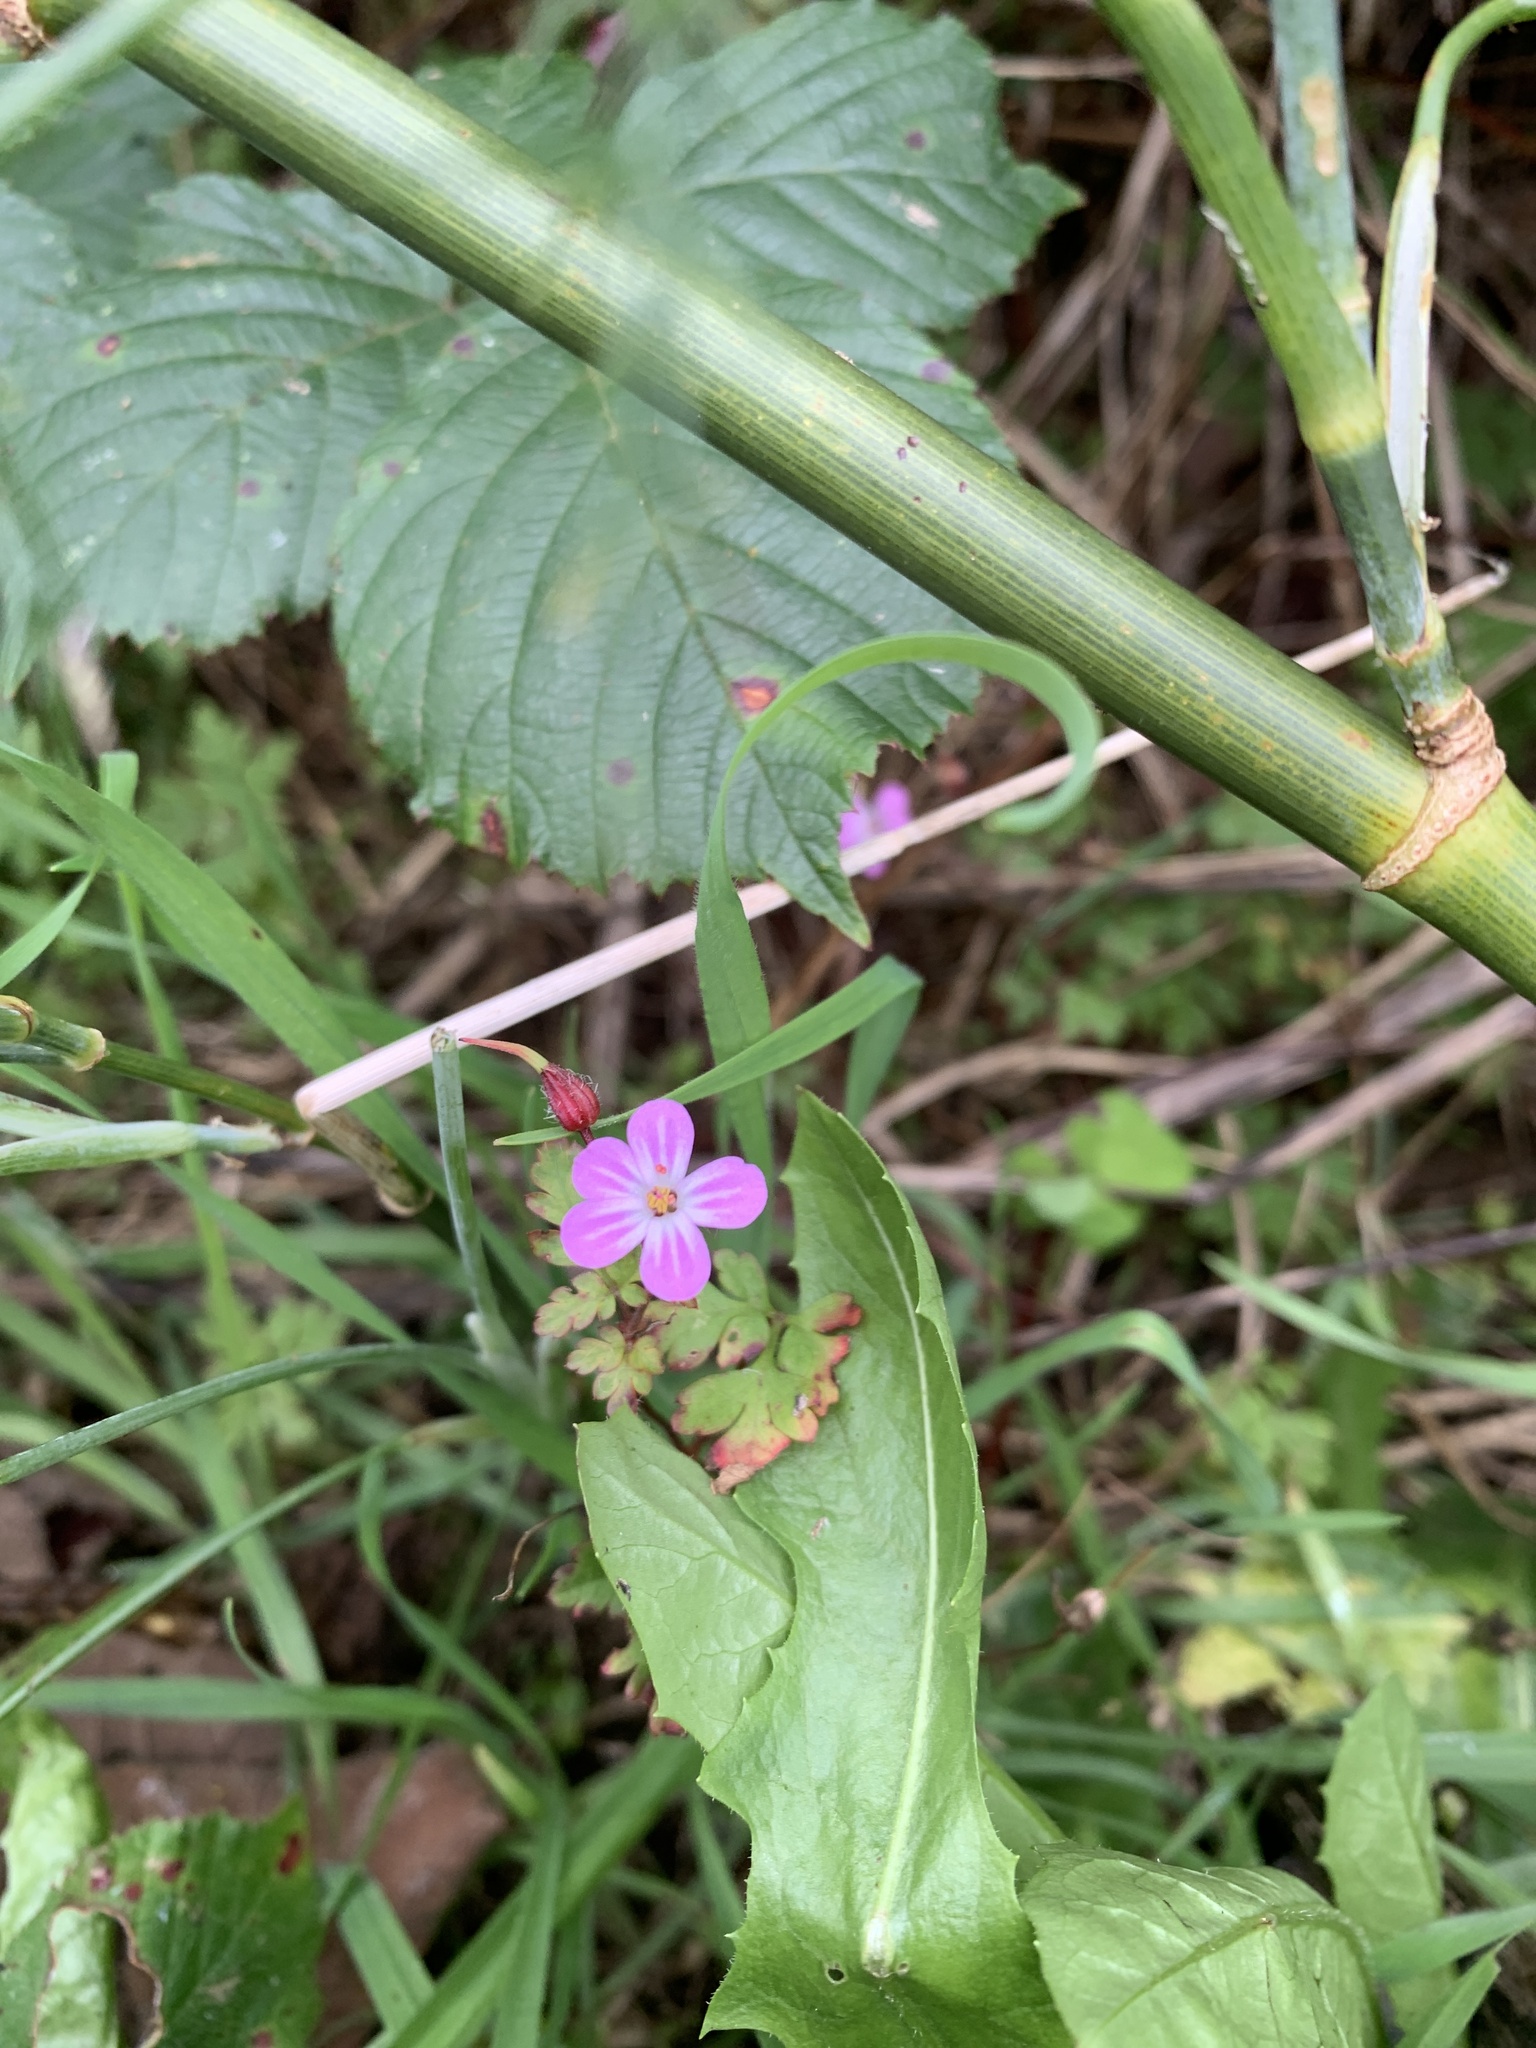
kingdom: Plantae
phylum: Tracheophyta
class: Magnoliopsida
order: Geraniales
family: Geraniaceae
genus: Geranium
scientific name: Geranium lucidum
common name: Shining crane's-bill
